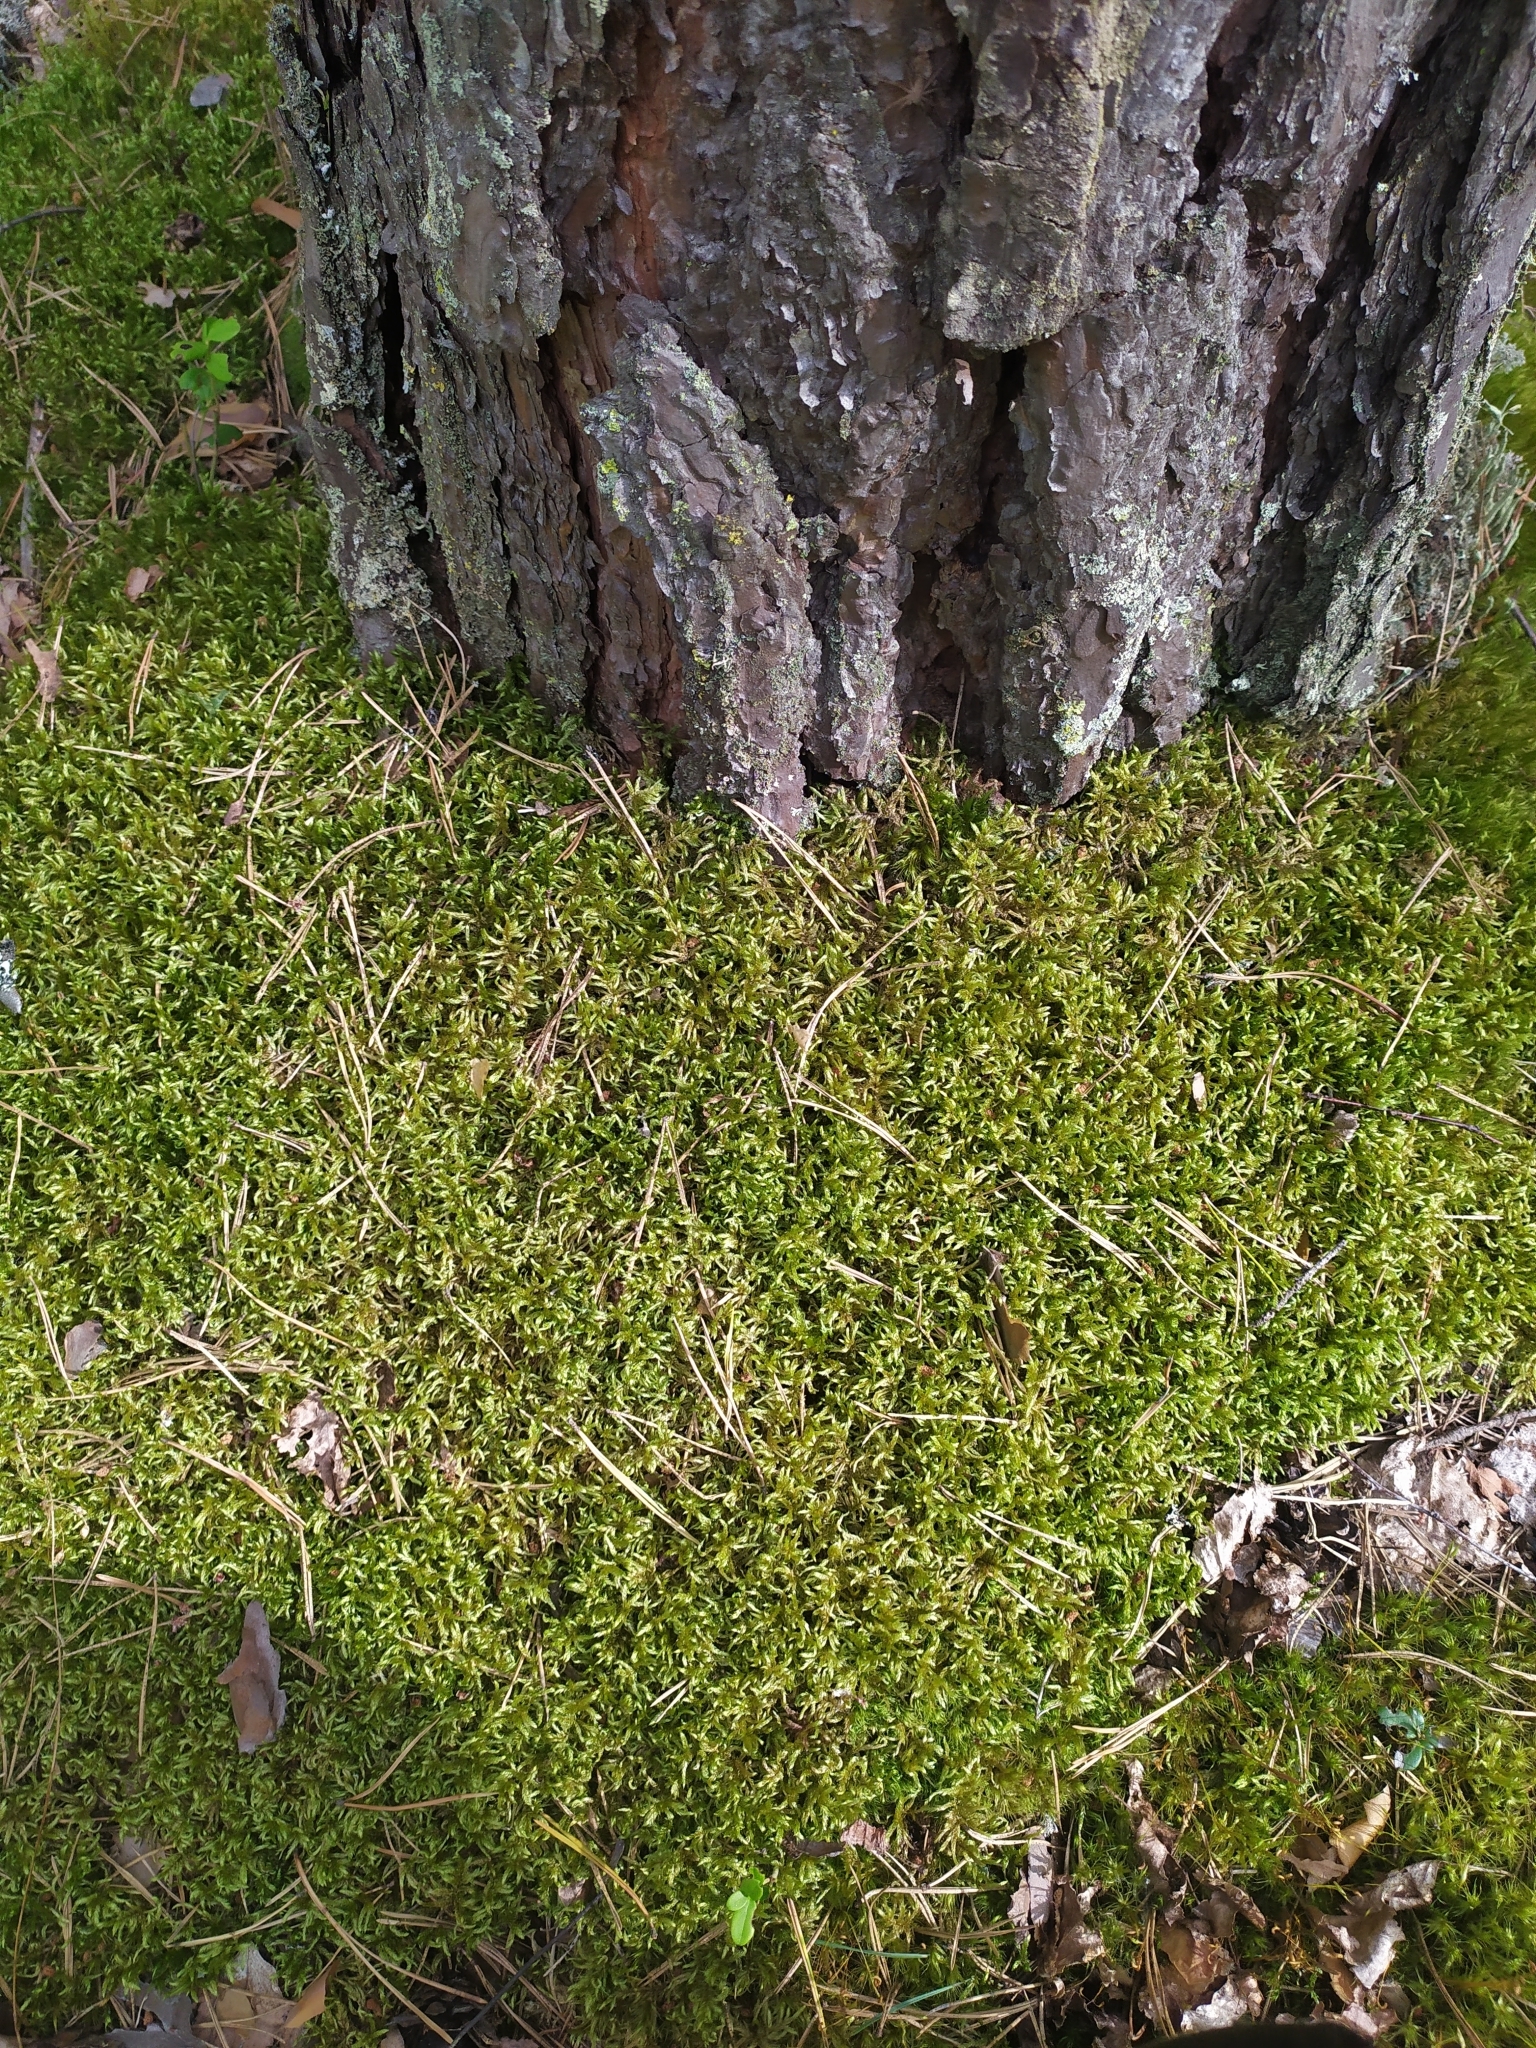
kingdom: Plantae
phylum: Bryophyta
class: Bryopsida
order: Hypnales
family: Hylocomiaceae
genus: Pleurozium
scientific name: Pleurozium schreberi
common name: Red-stemmed feather moss
